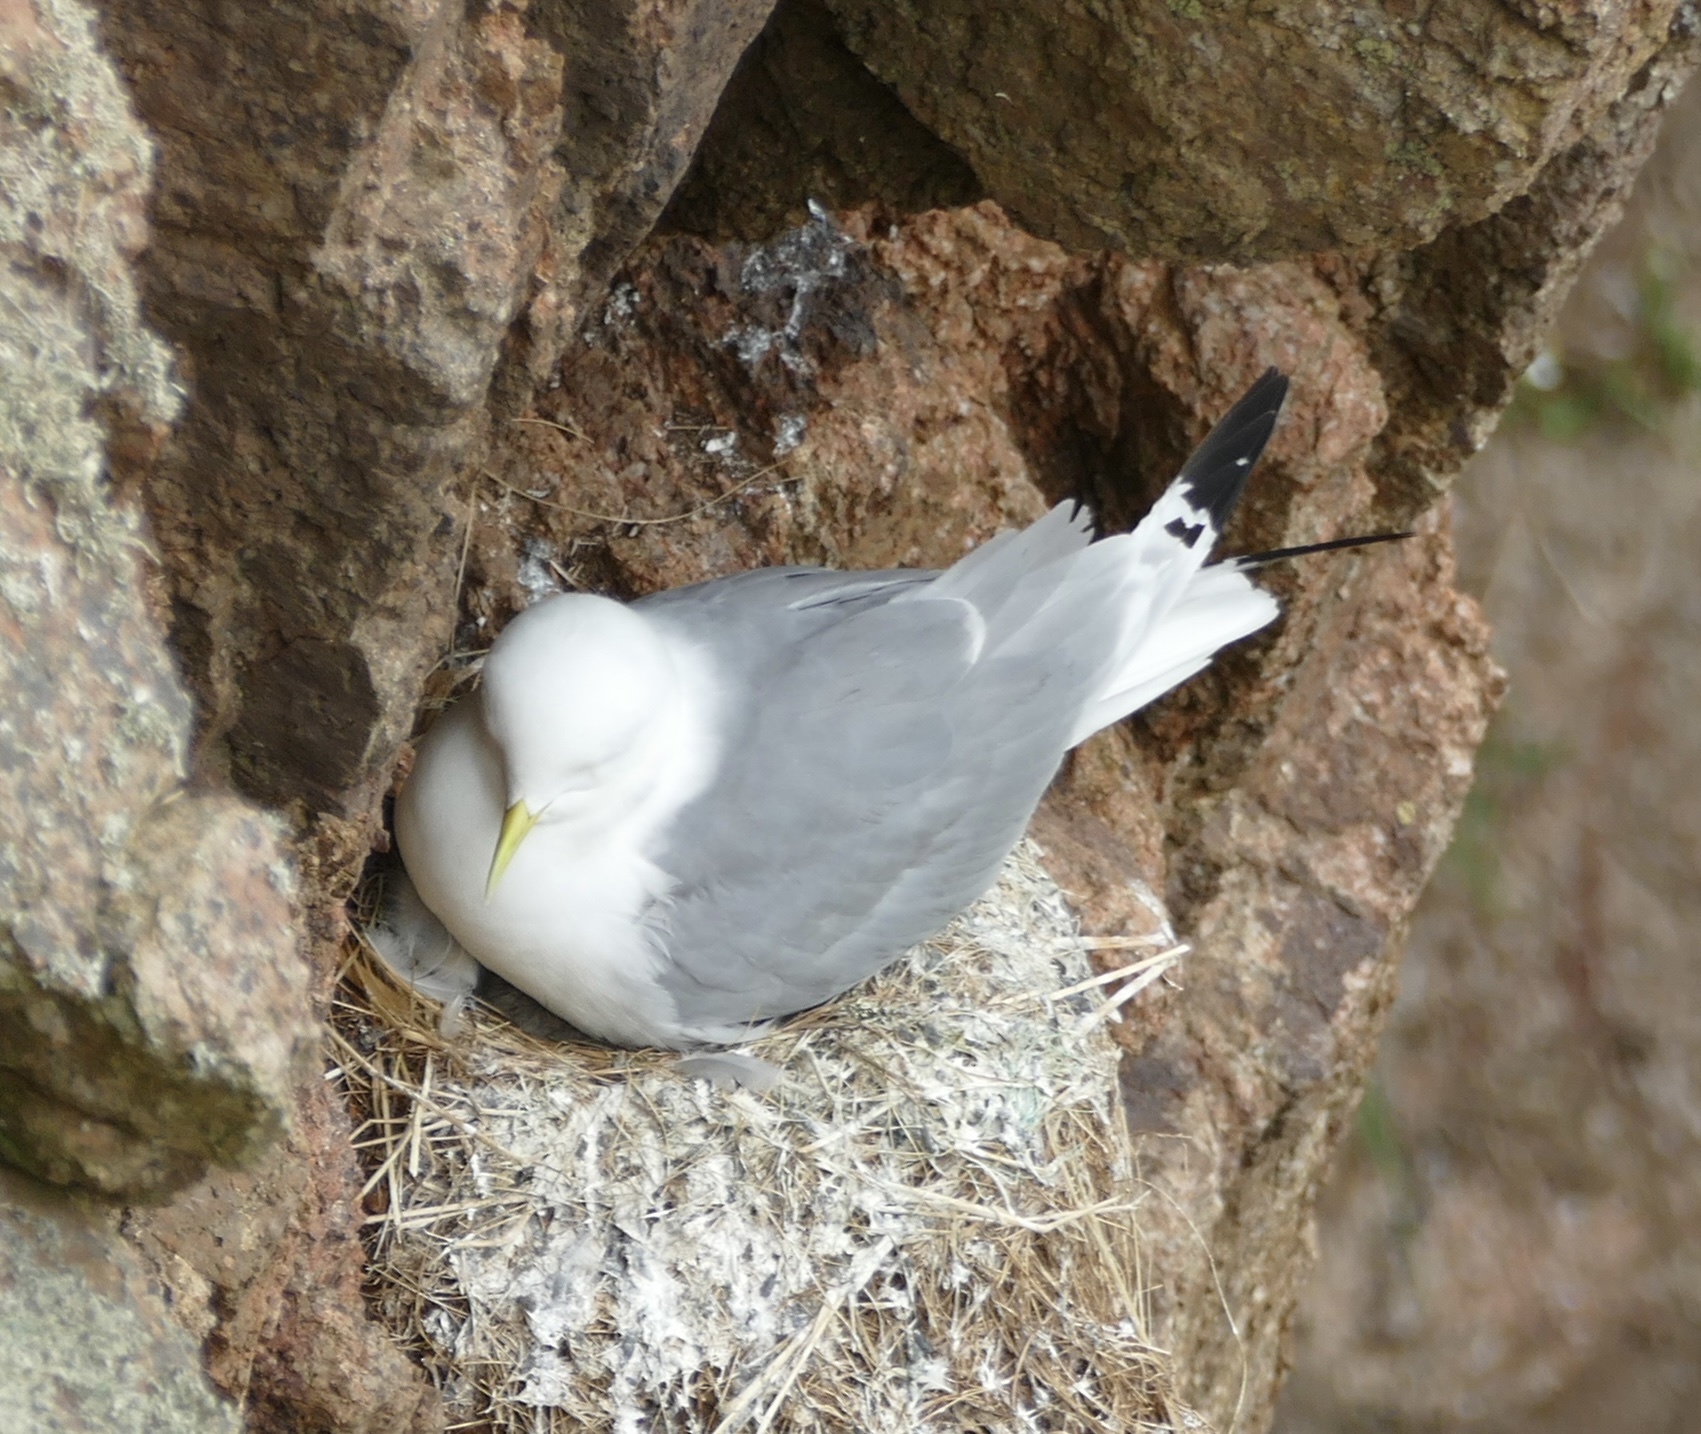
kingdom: Animalia
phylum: Chordata
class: Aves
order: Charadriiformes
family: Laridae
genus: Rissa
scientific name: Rissa tridactyla
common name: Black-legged kittiwake
